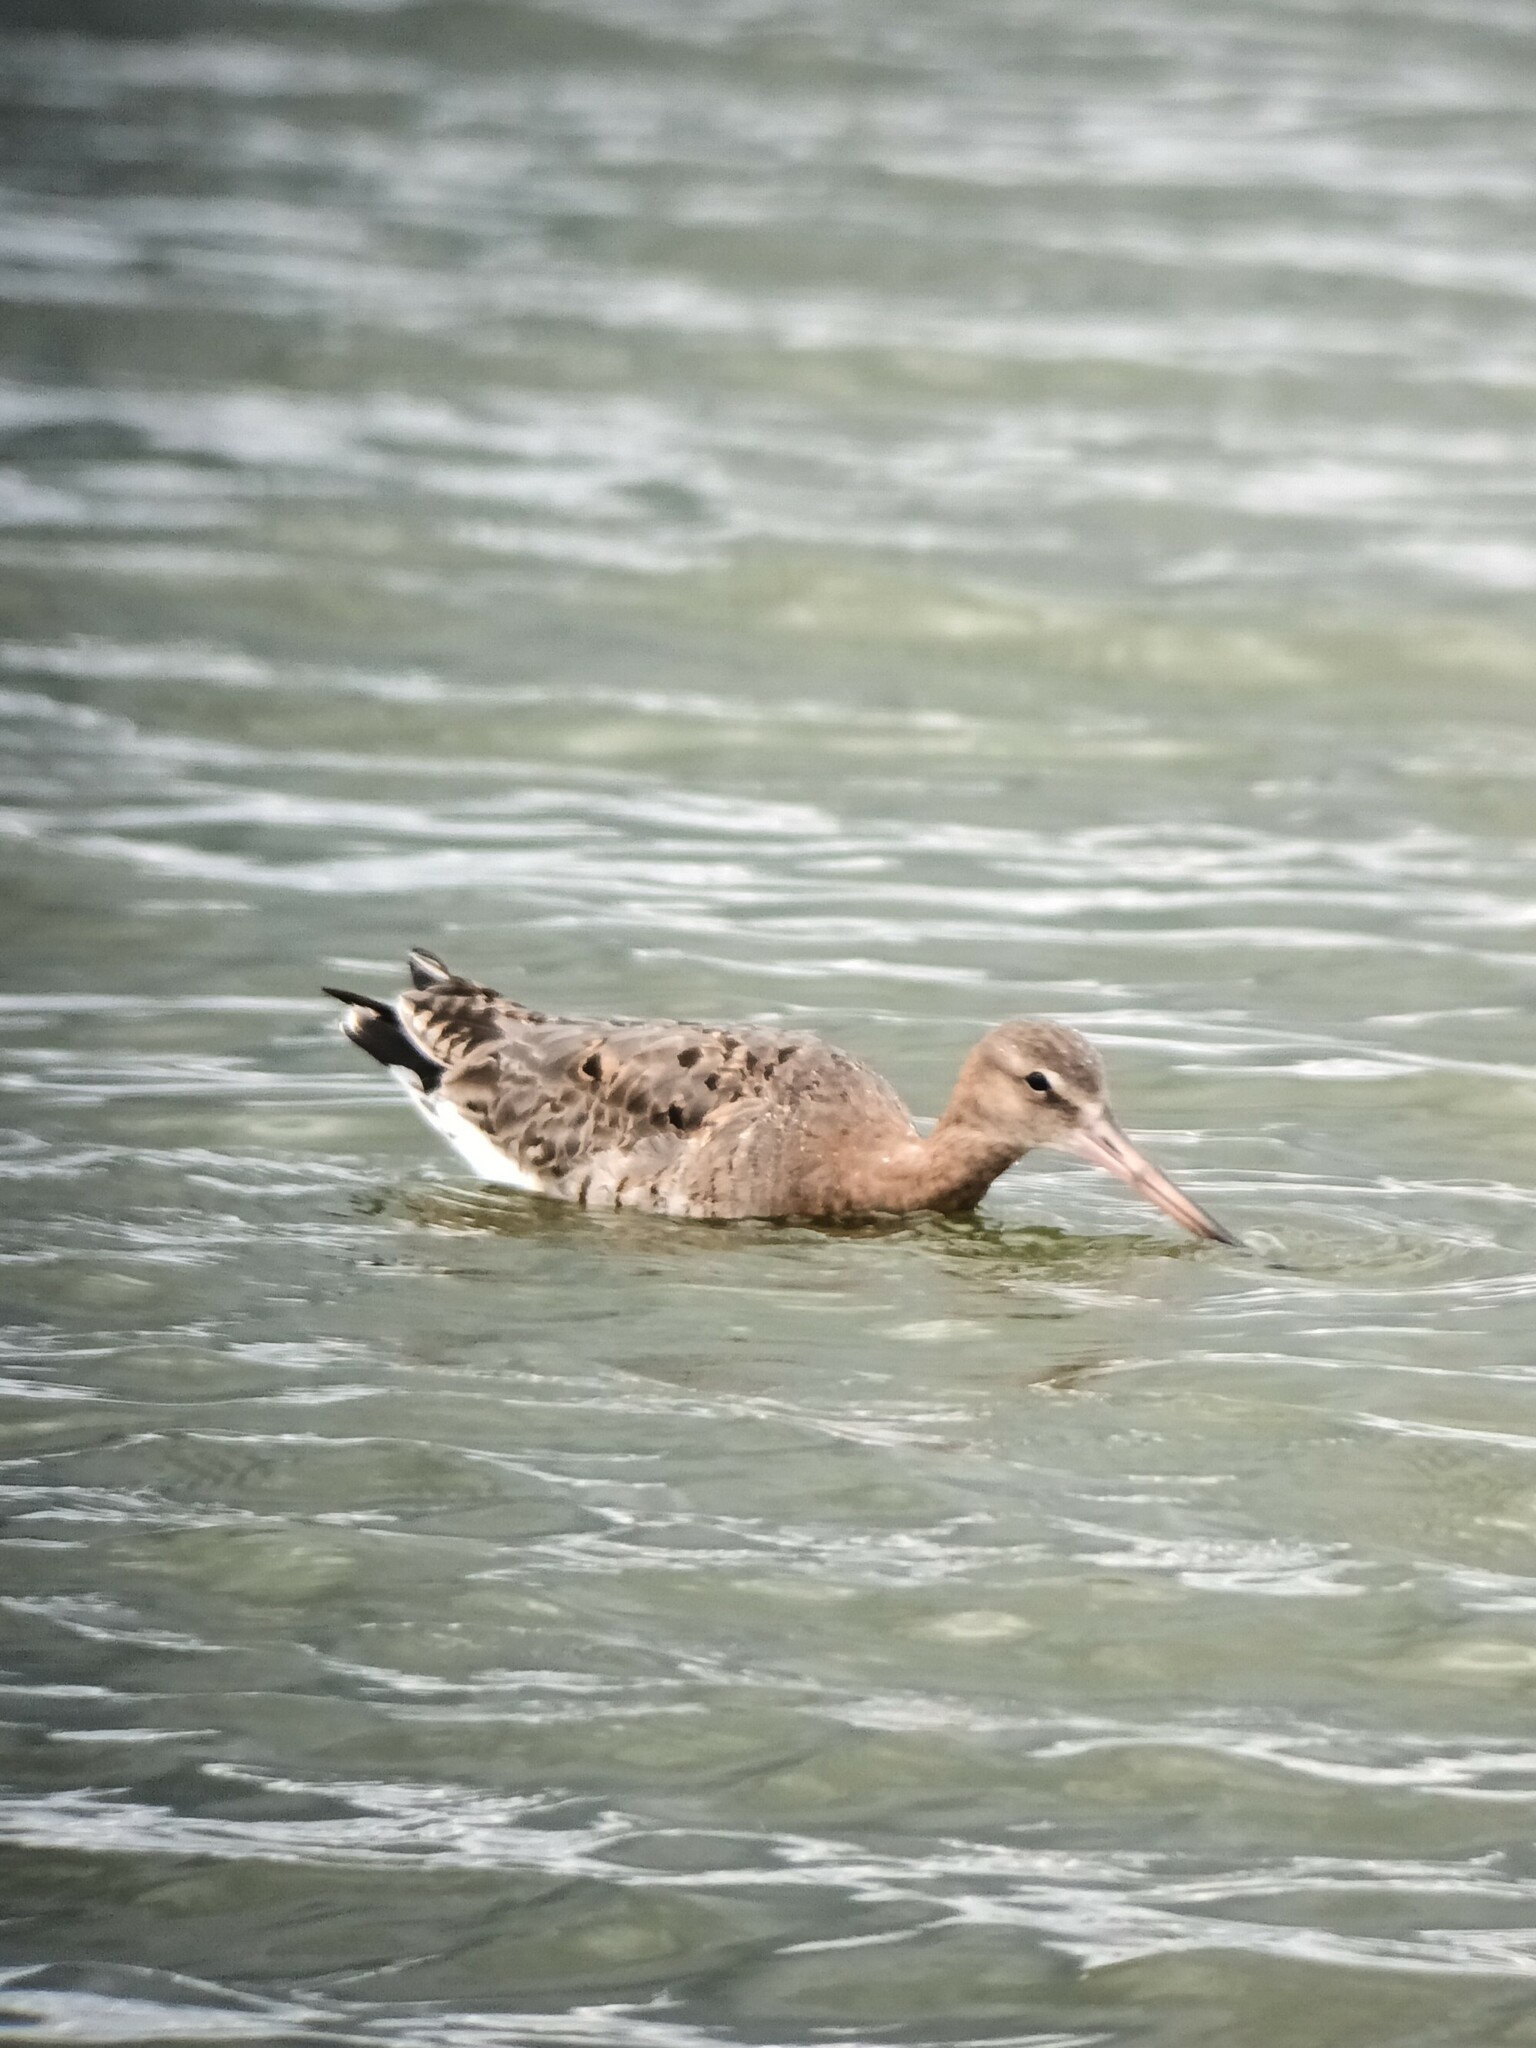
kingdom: Animalia
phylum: Chordata
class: Aves
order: Charadriiformes
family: Scolopacidae
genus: Limosa
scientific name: Limosa limosa
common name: Black-tailed godwit
